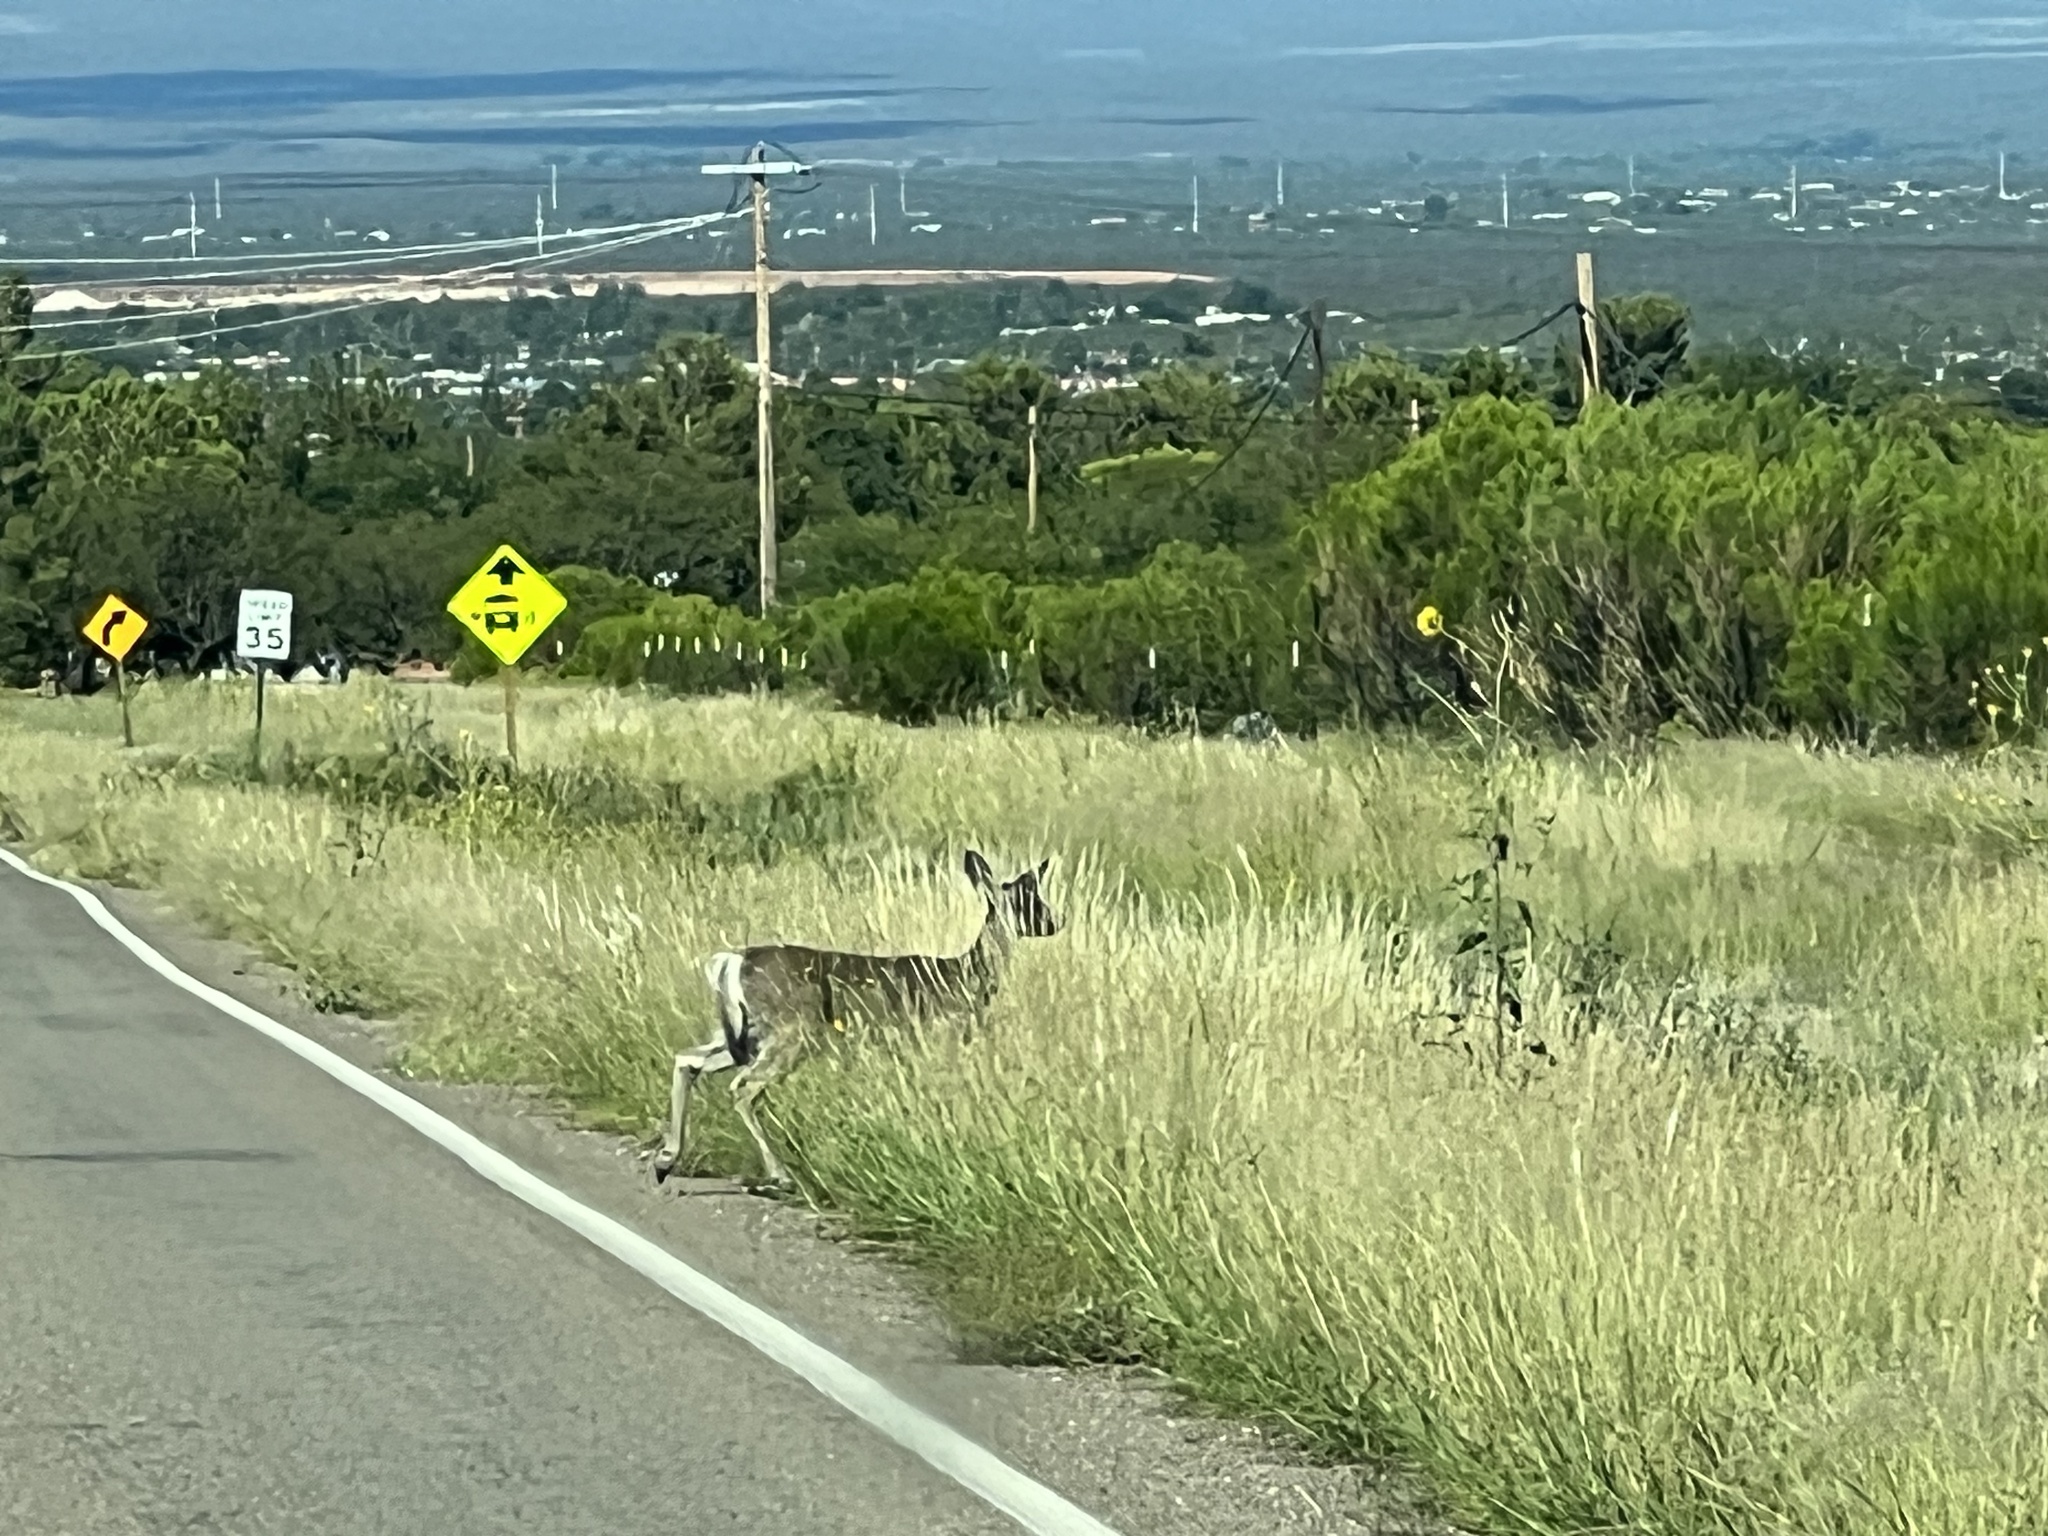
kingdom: Animalia
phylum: Chordata
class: Mammalia
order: Artiodactyla
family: Cervidae
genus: Odocoileus
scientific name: Odocoileus virginianus
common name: White-tailed deer
